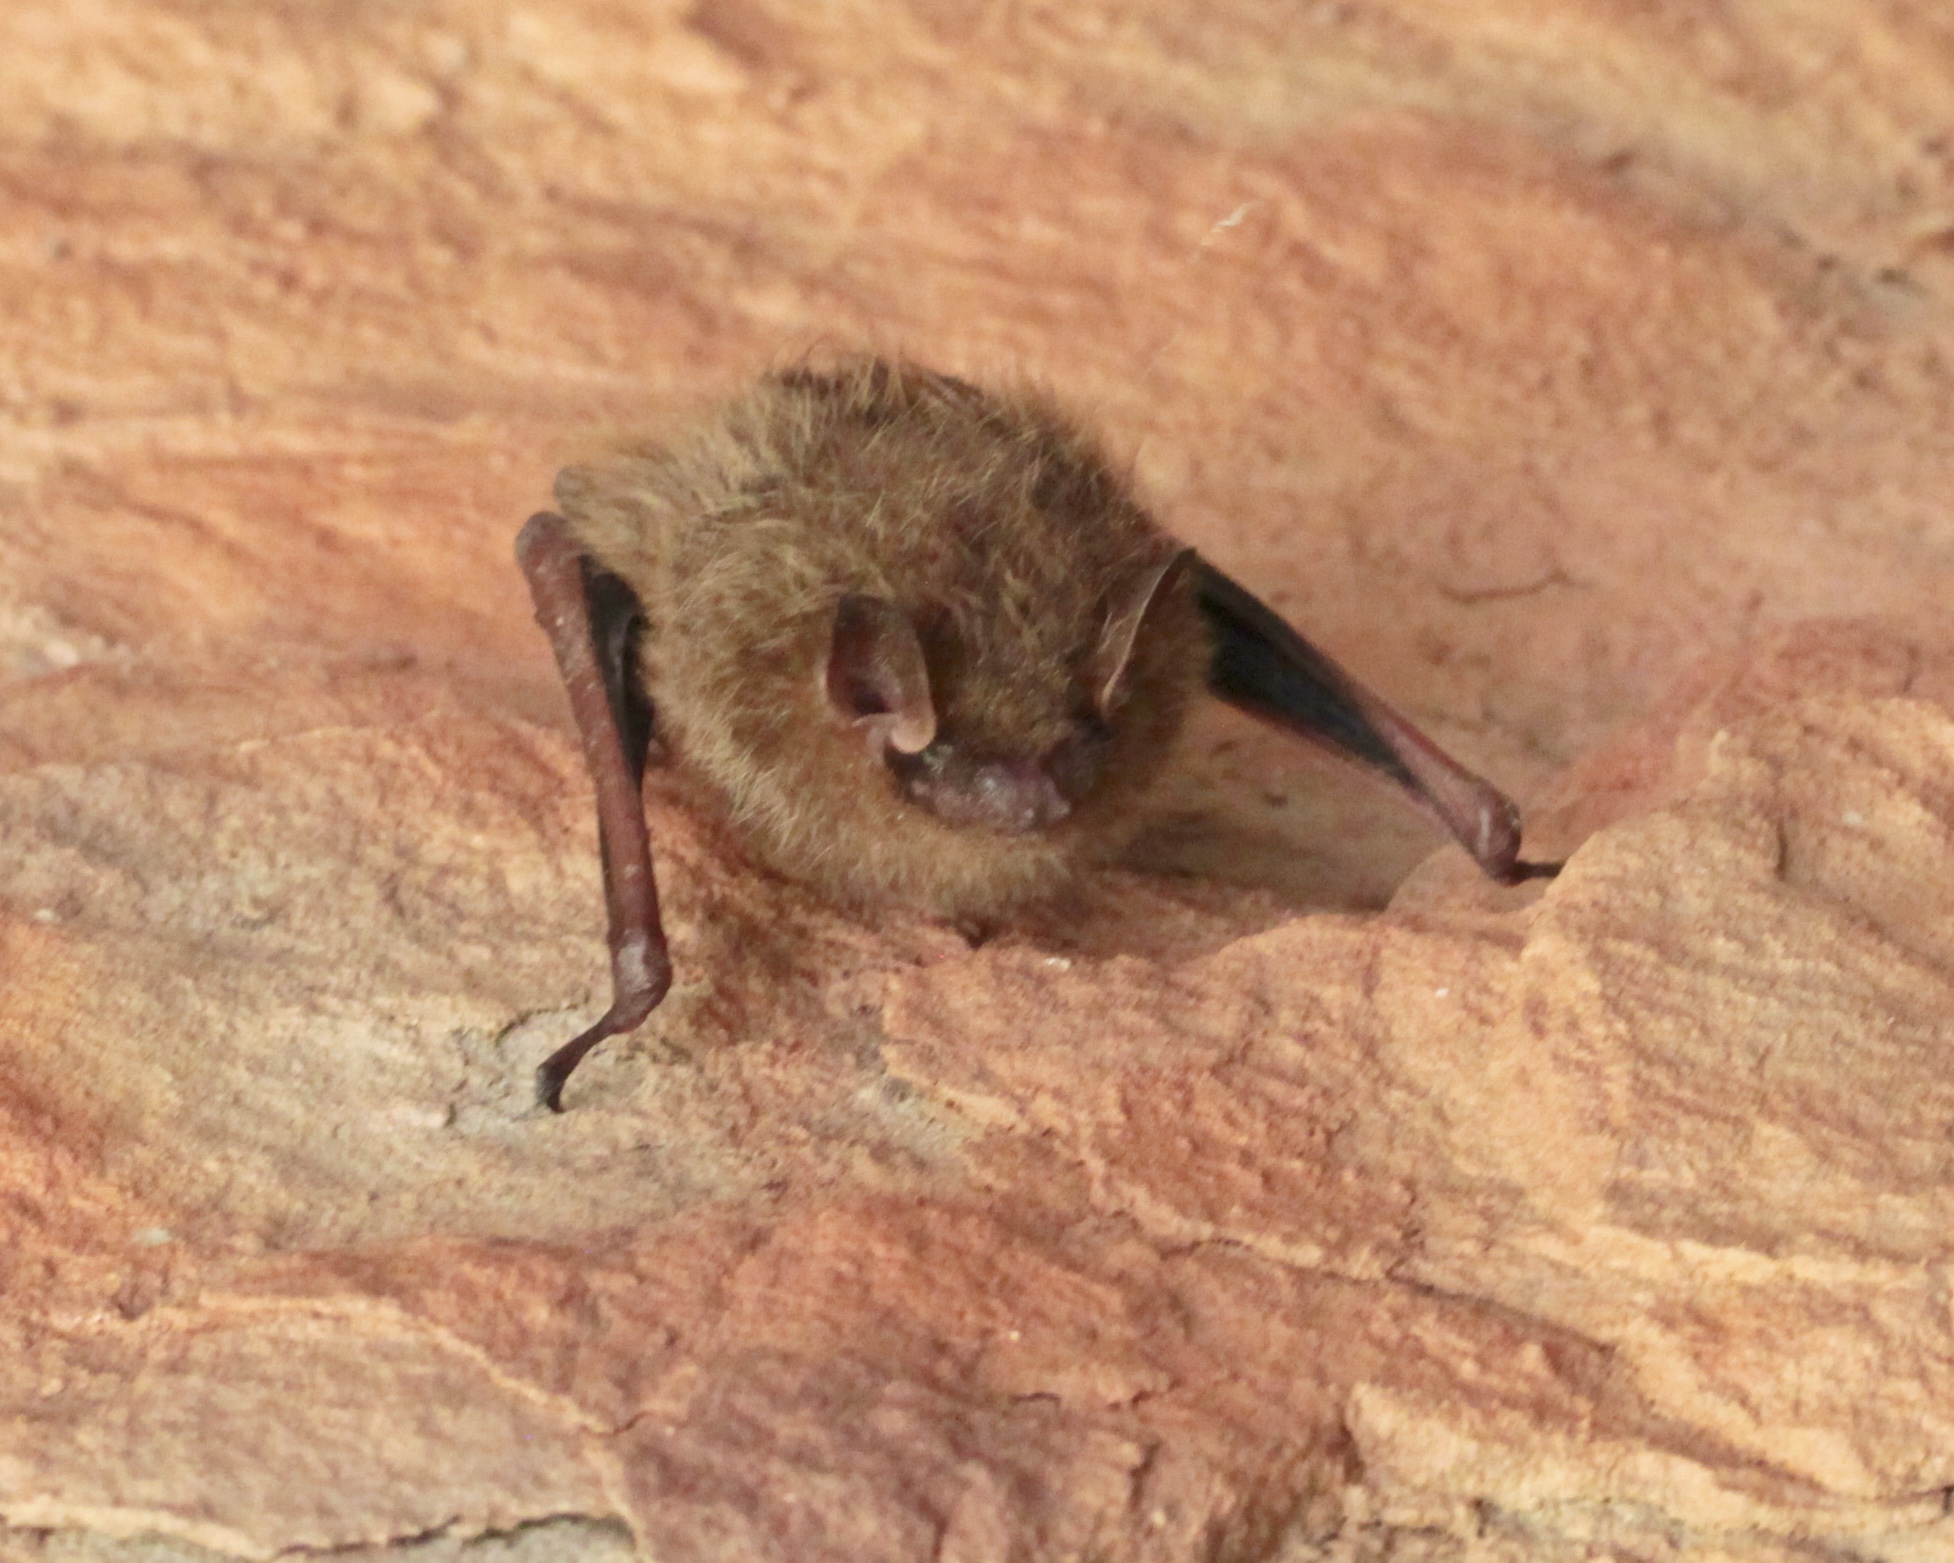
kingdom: Animalia
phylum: Chordata
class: Mammalia
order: Chiroptera
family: Vespertilionidae
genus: Perimyotis
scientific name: Perimyotis subflavus
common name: Eastern pipistrelle
